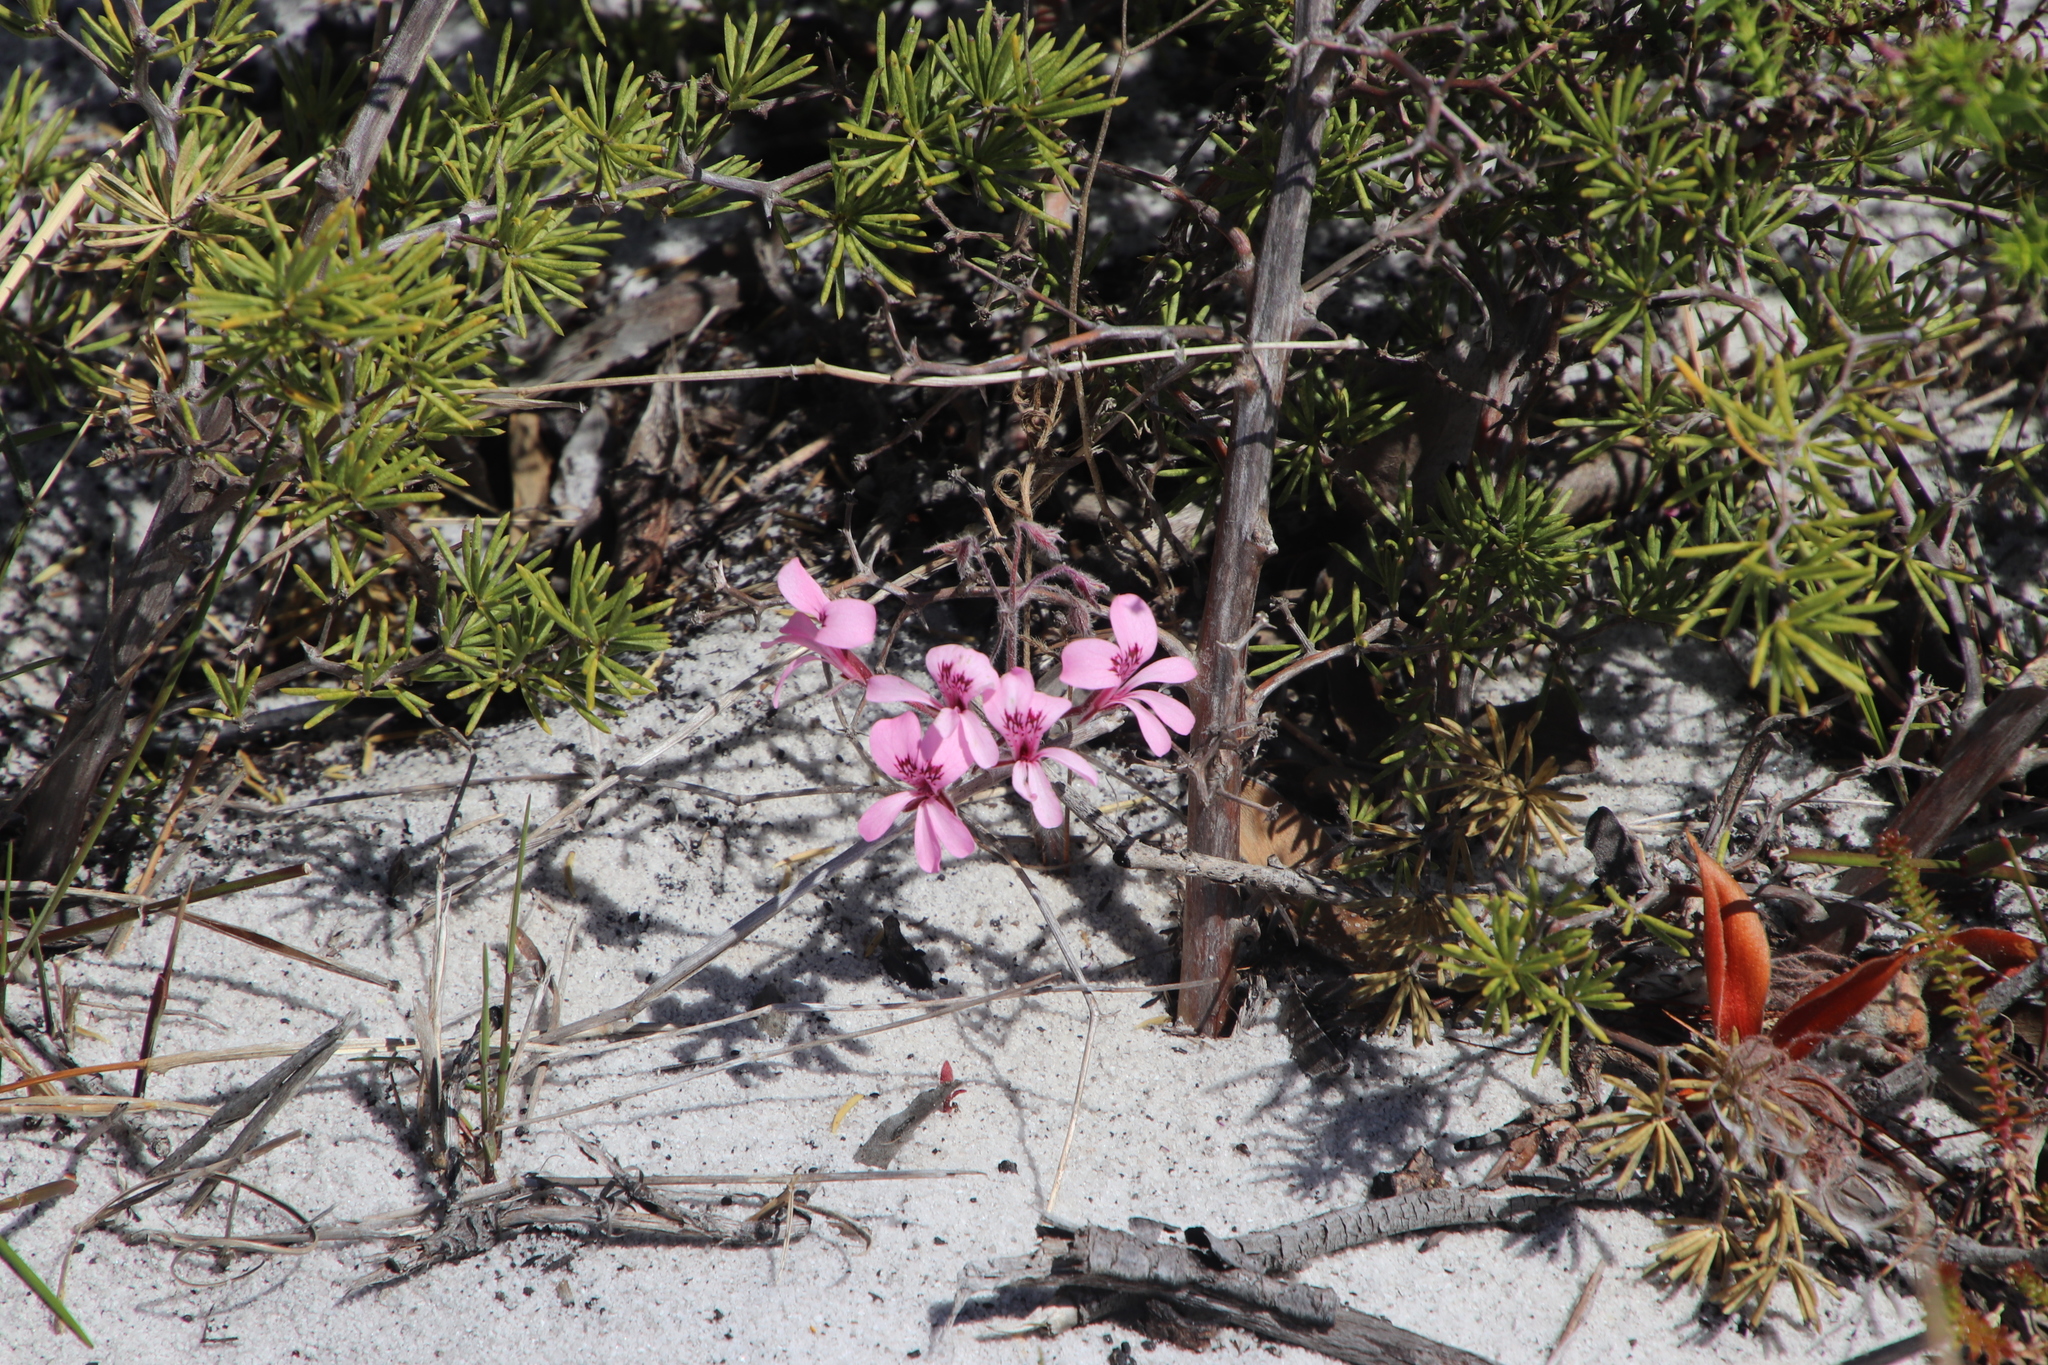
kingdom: Plantae
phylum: Tracheophyta
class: Magnoliopsida
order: Geraniales
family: Geraniaceae
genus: Pelargonium
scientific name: Pelargonium psammophilum
